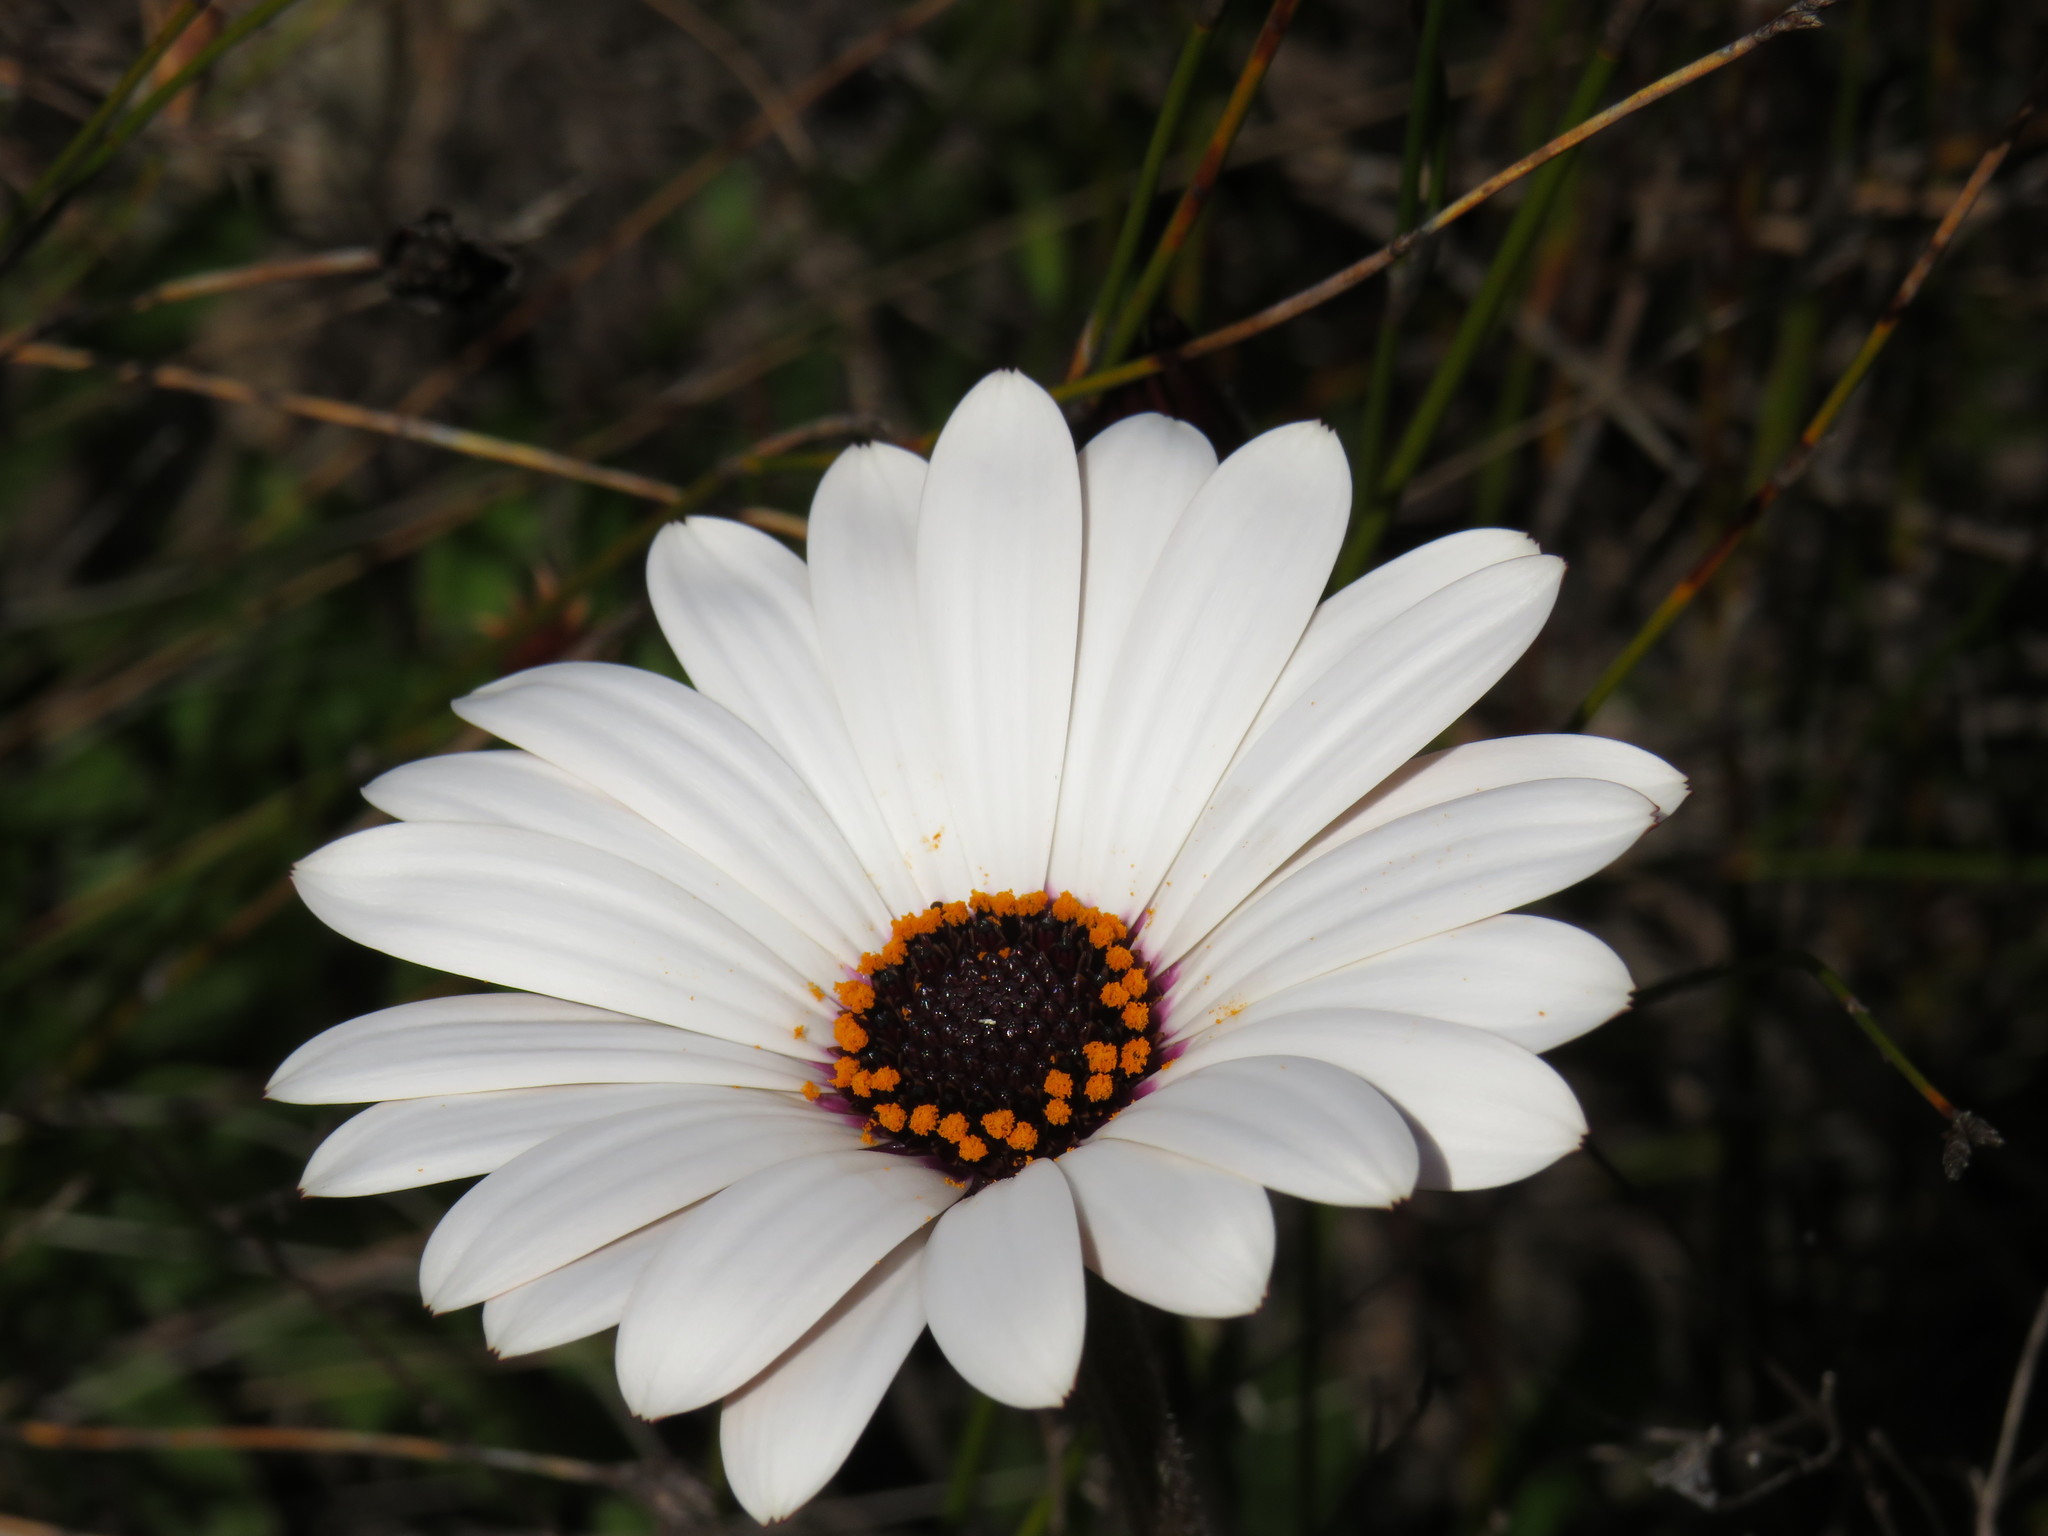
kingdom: Plantae
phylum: Tracheophyta
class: Magnoliopsida
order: Asterales
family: Asteraceae
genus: Dimorphotheca
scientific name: Dimorphotheca nudicaulis
